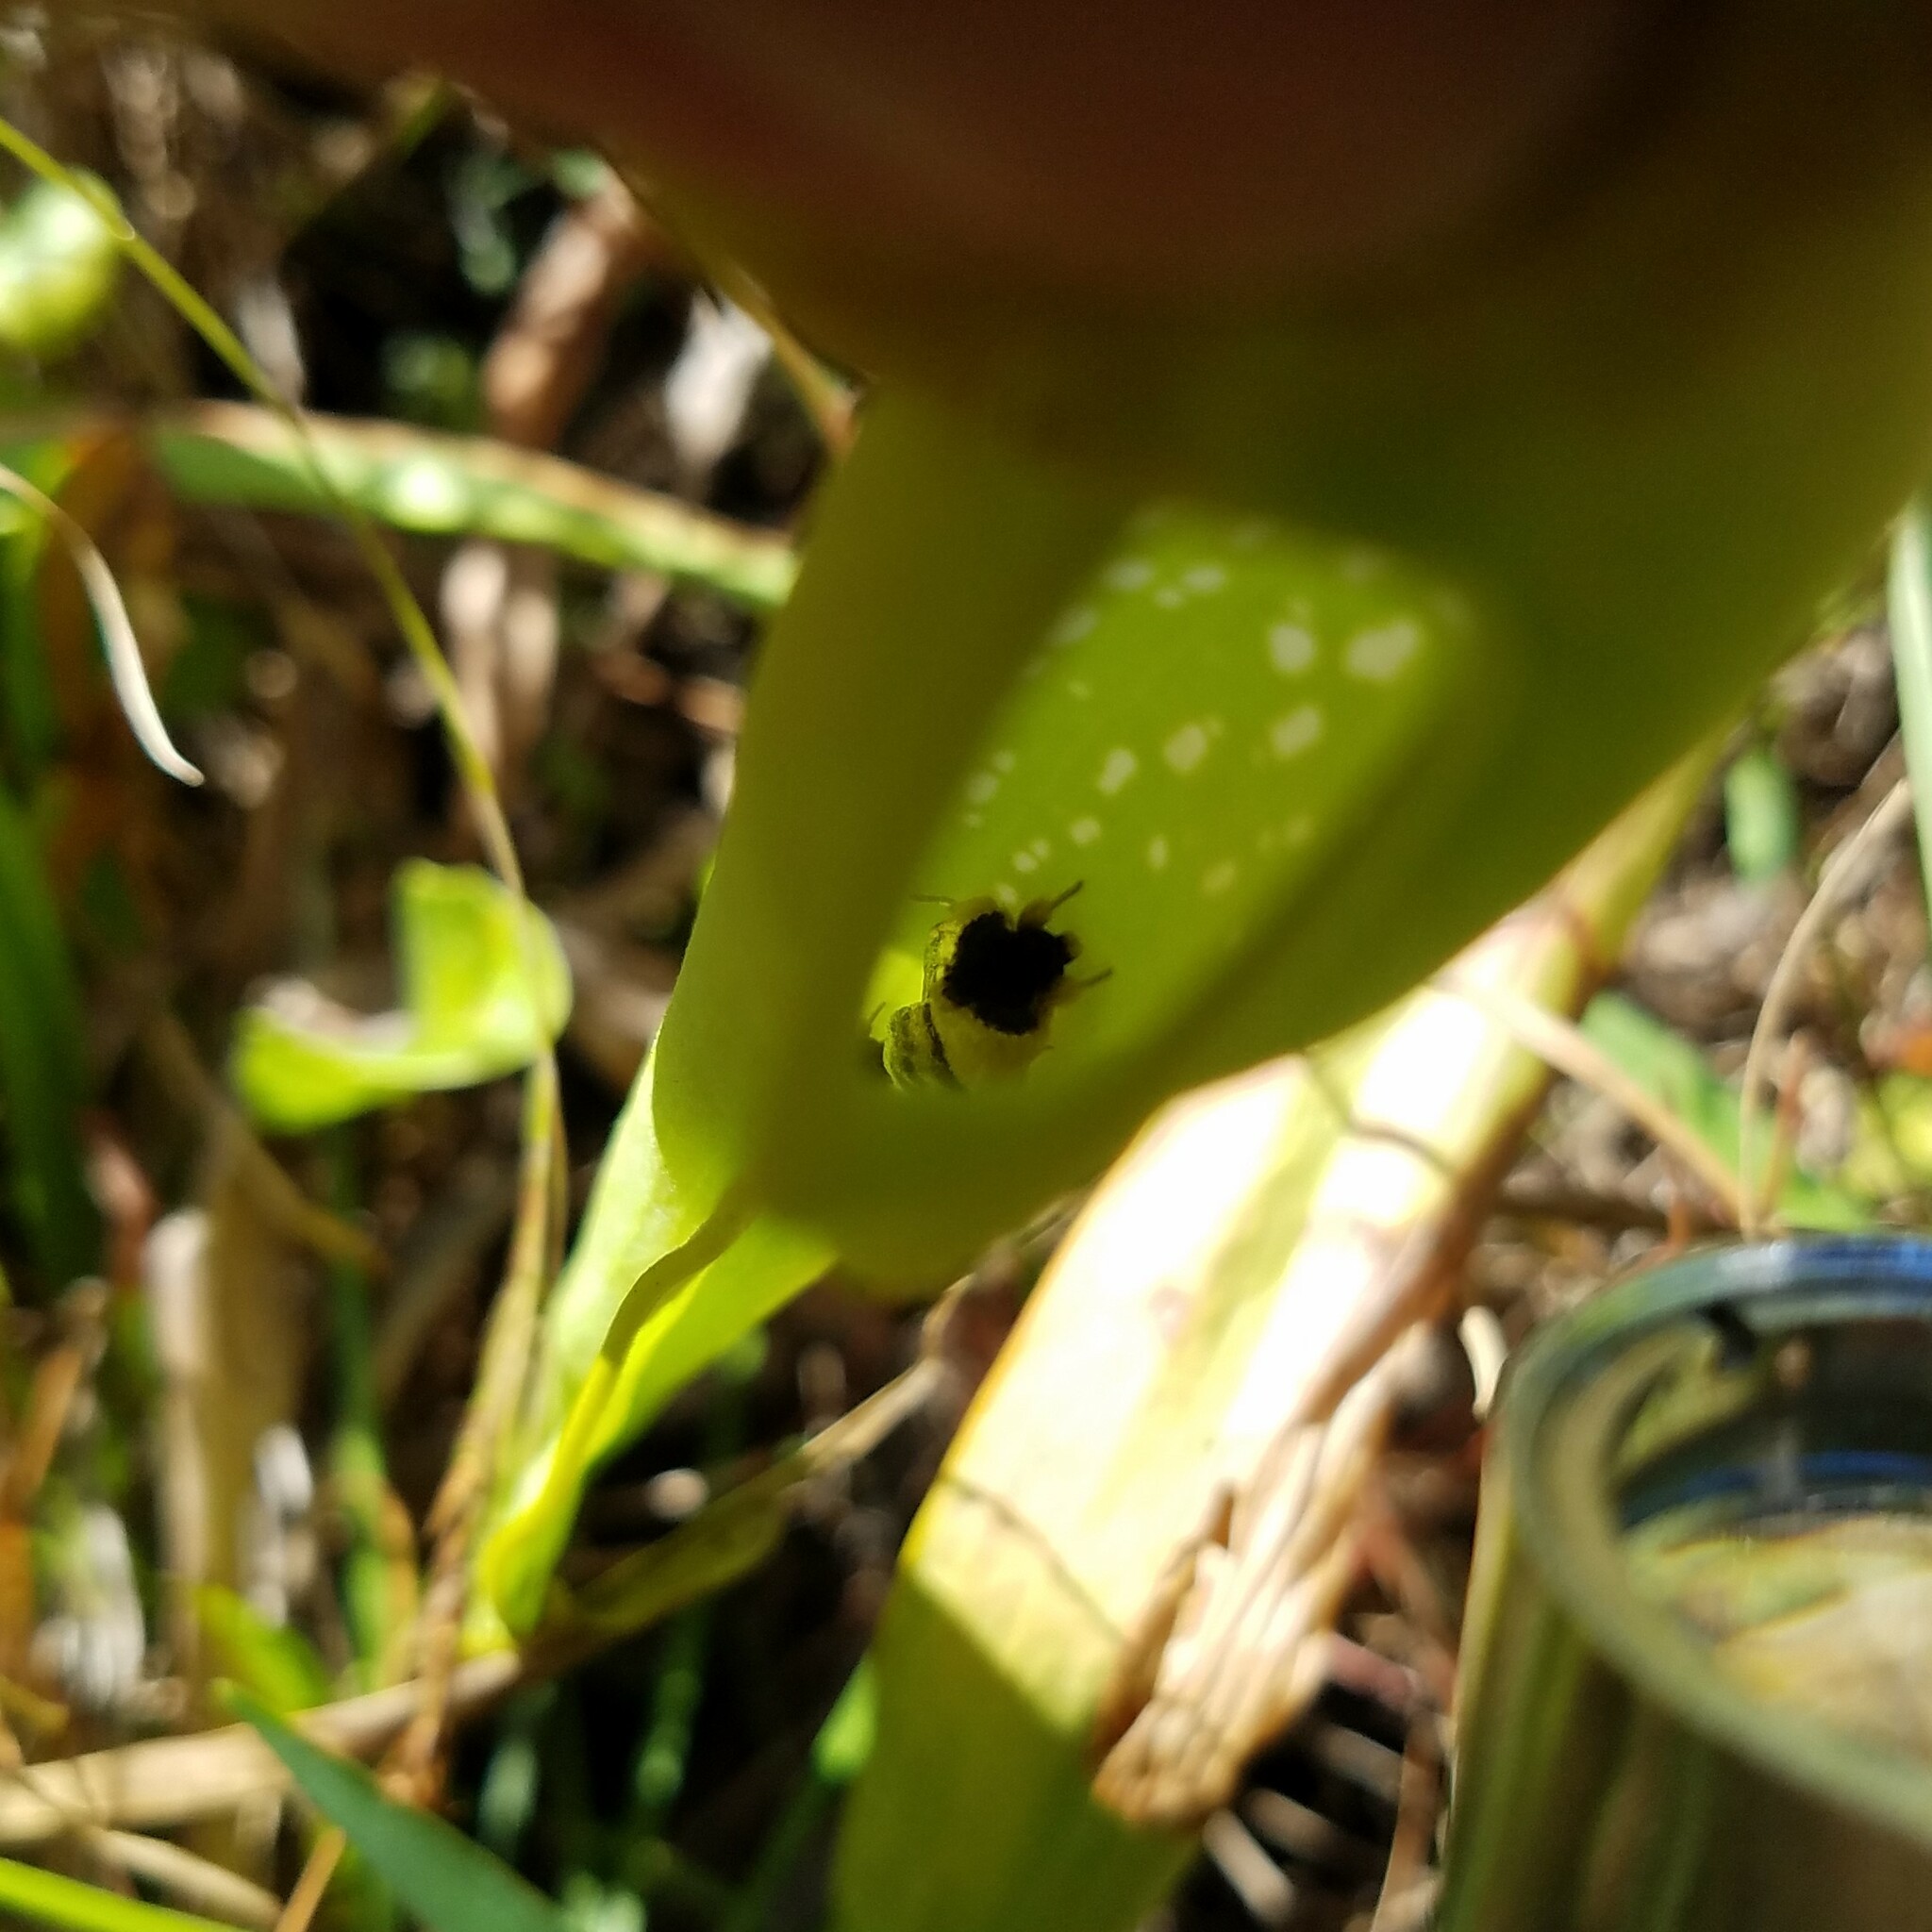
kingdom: Animalia
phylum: Arthropoda
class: Insecta
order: Lepidoptera
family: Noctuidae
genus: Exyra
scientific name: Exyra semicrocea
